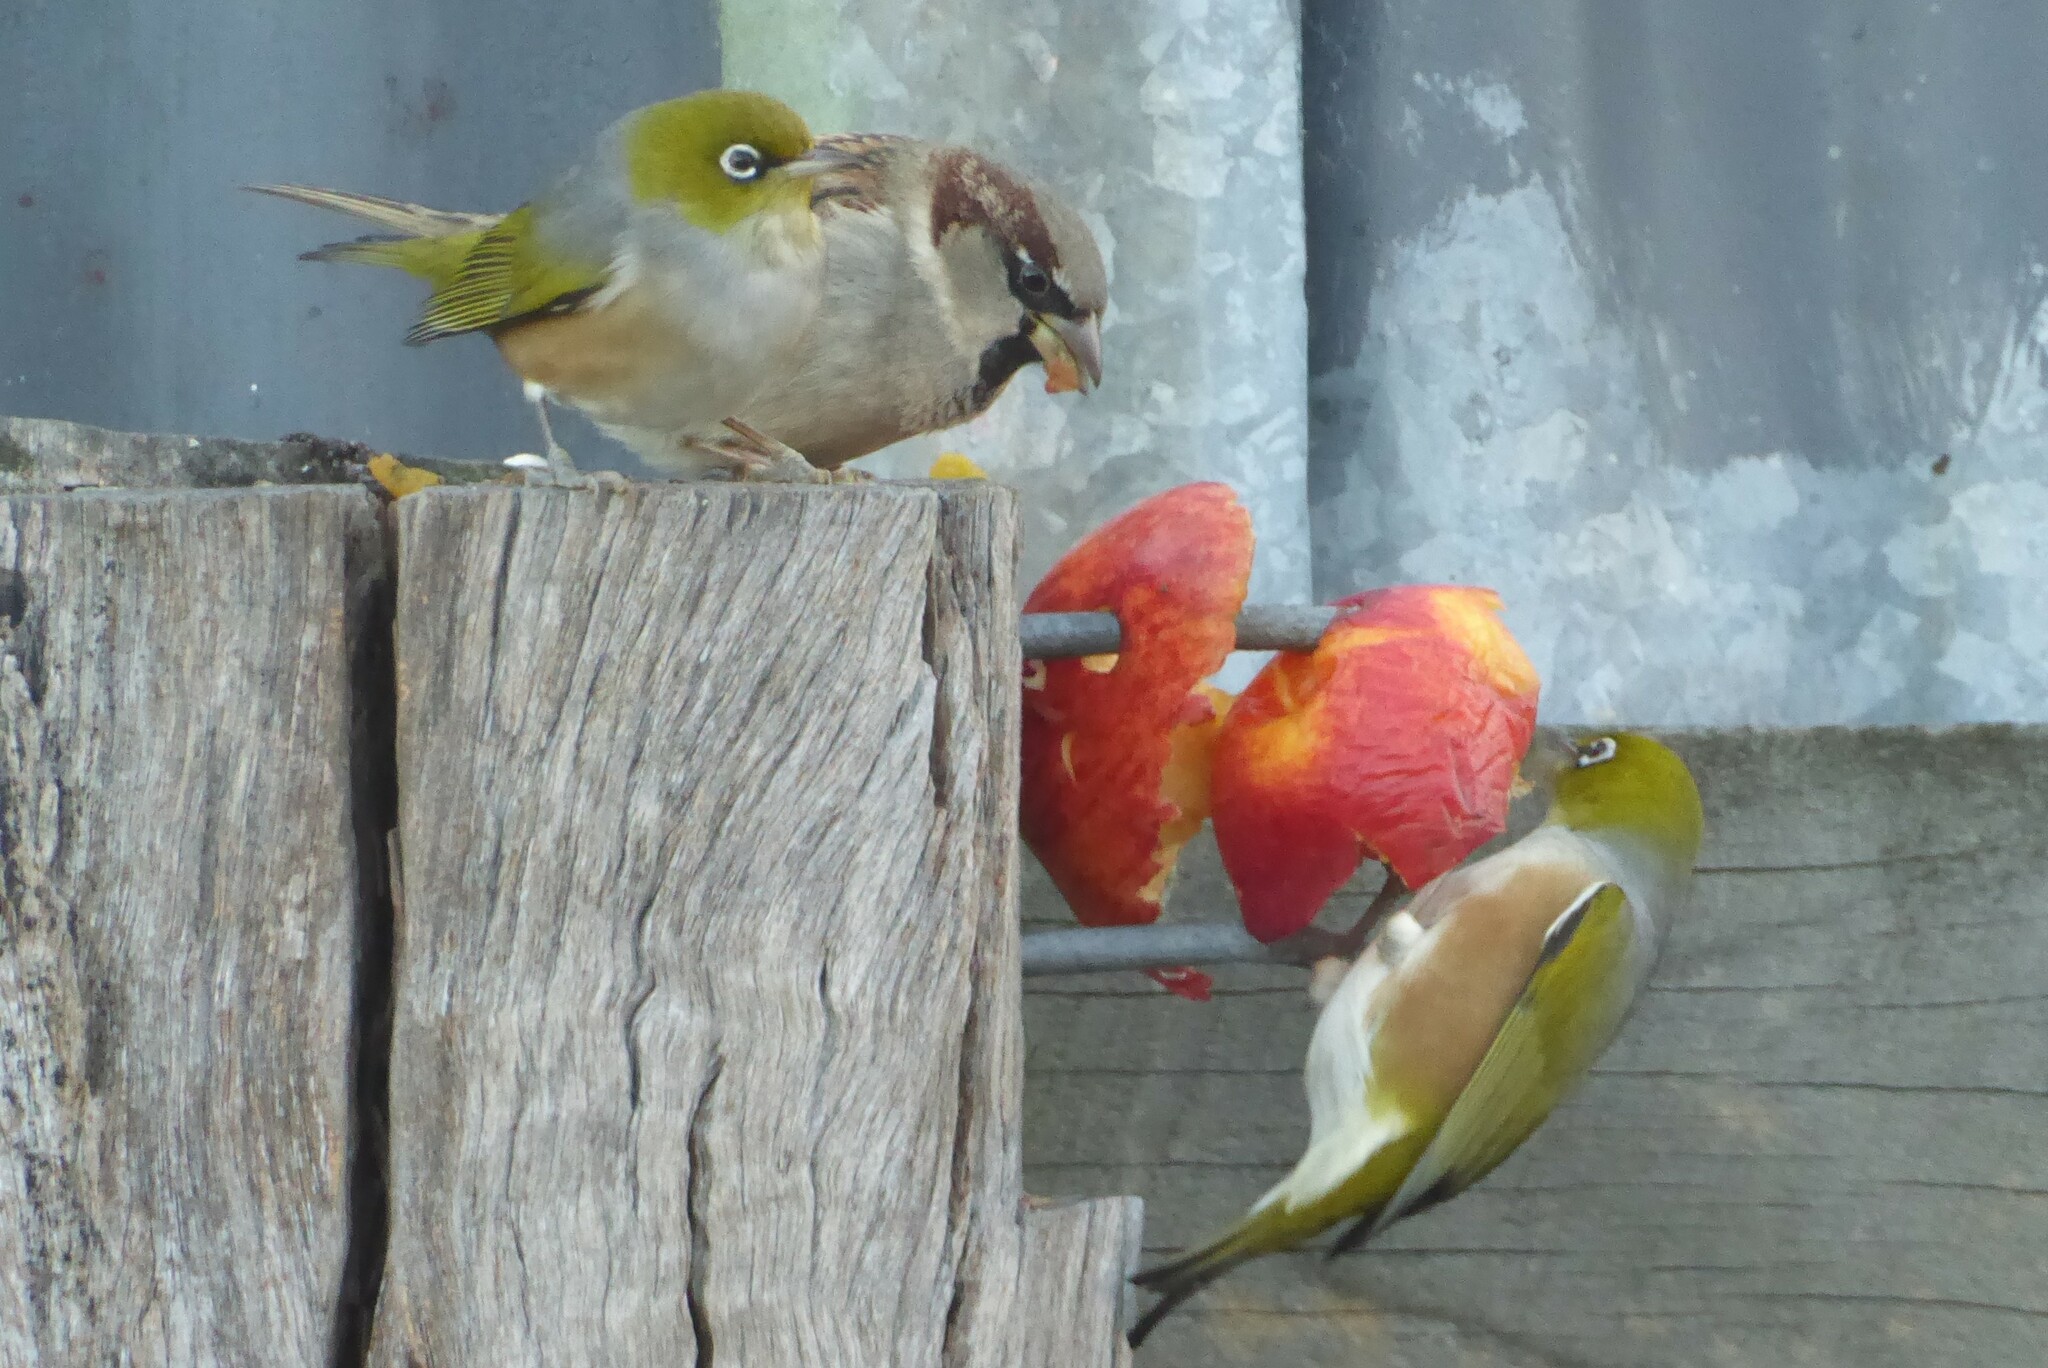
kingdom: Animalia
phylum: Chordata
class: Aves
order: Passeriformes
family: Zosteropidae
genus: Zosterops
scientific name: Zosterops lateralis
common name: Silvereye
